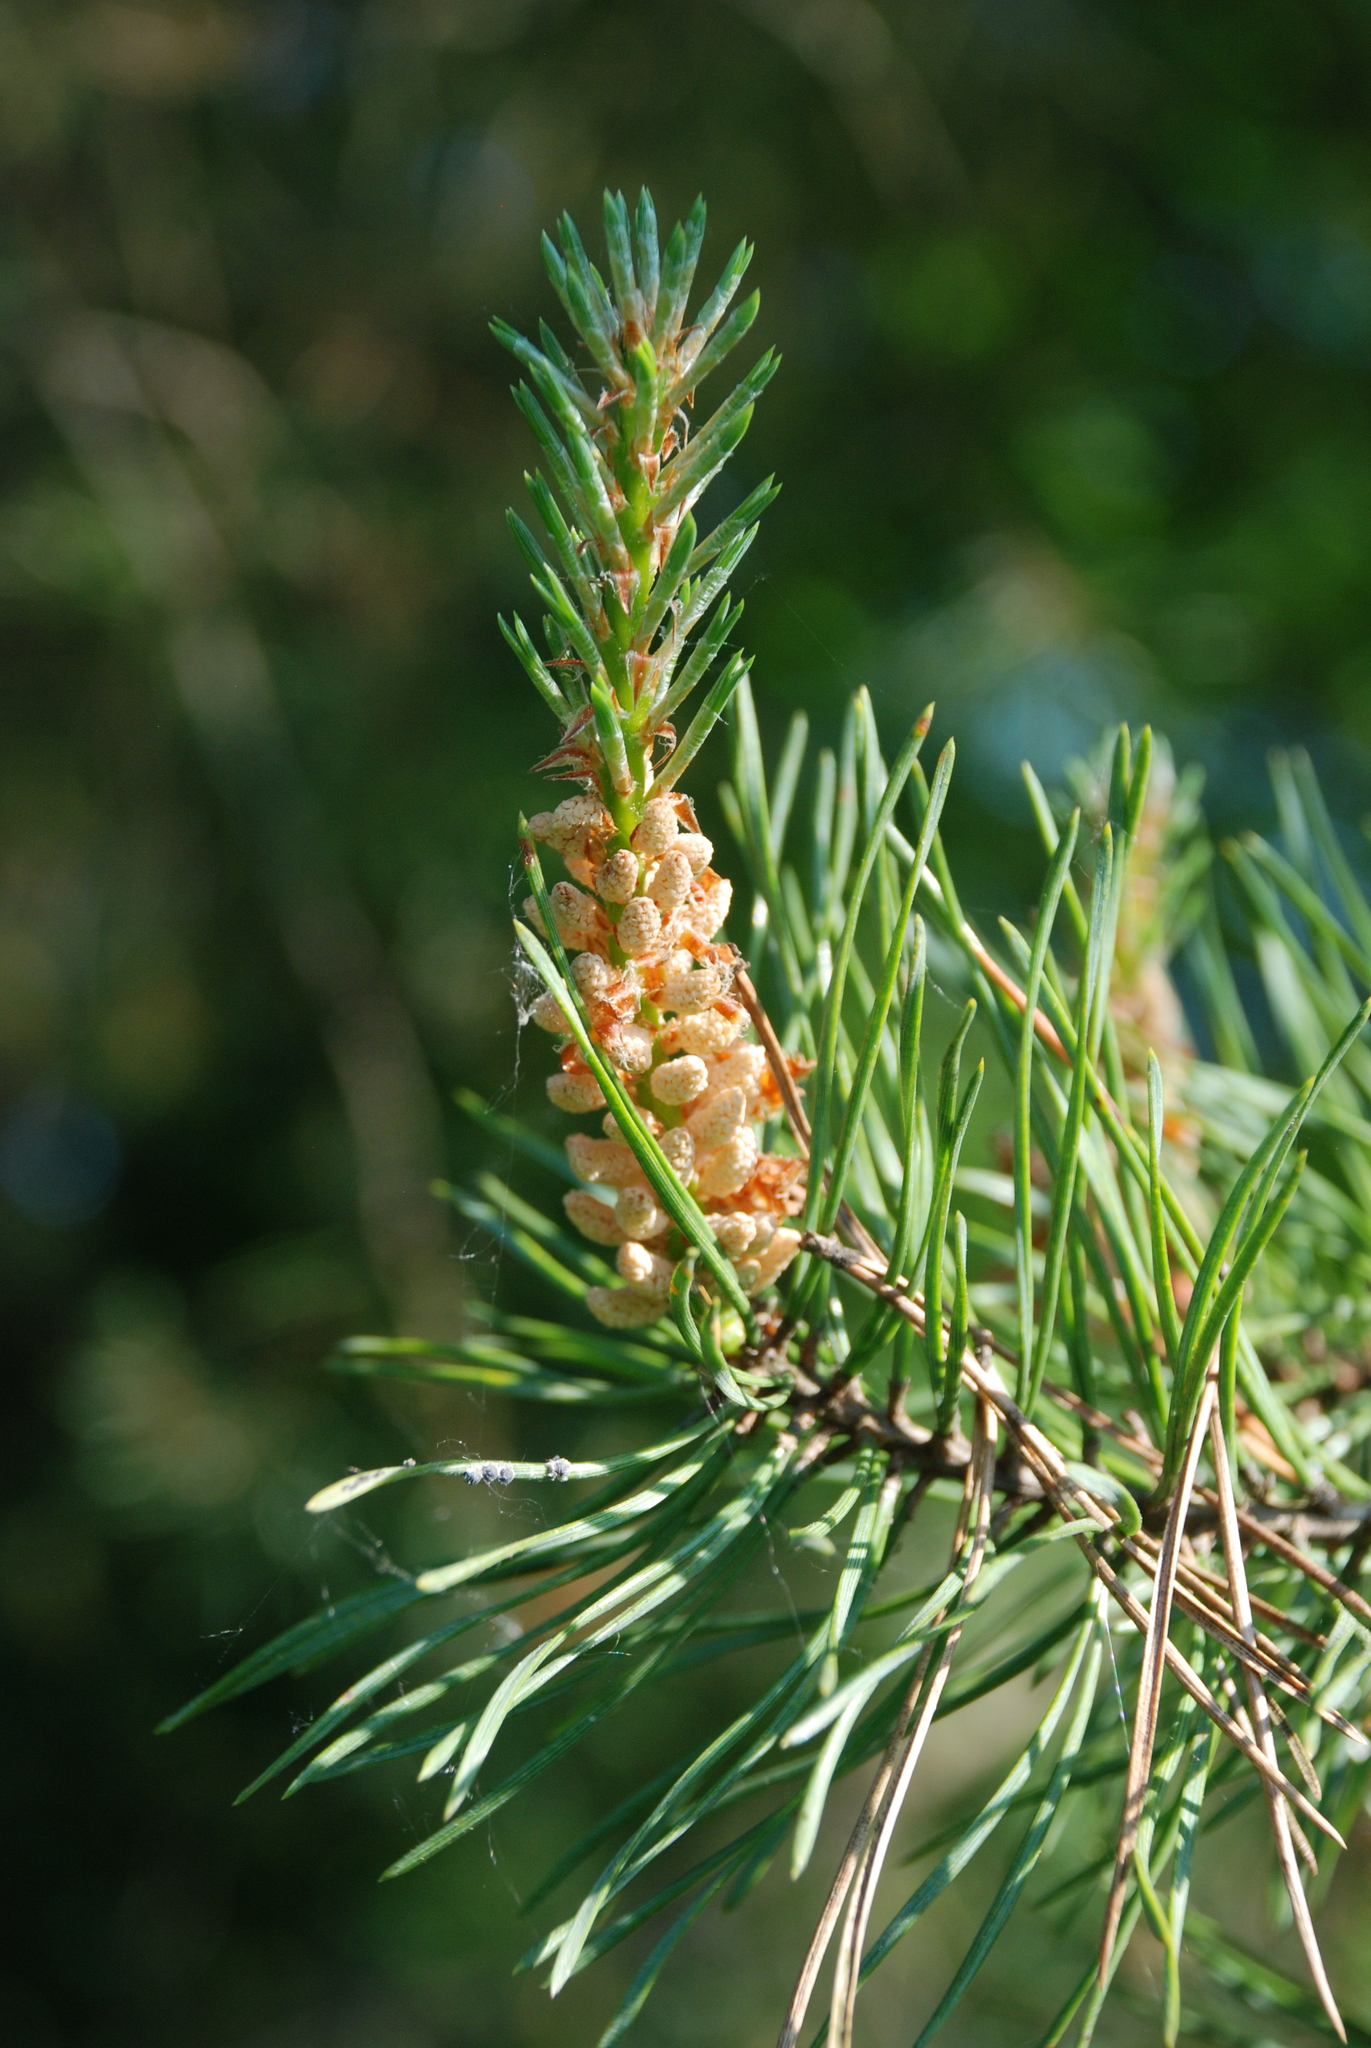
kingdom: Plantae
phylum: Tracheophyta
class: Pinopsida
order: Pinales
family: Pinaceae
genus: Pinus
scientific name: Pinus sylvestris
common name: Scots pine
